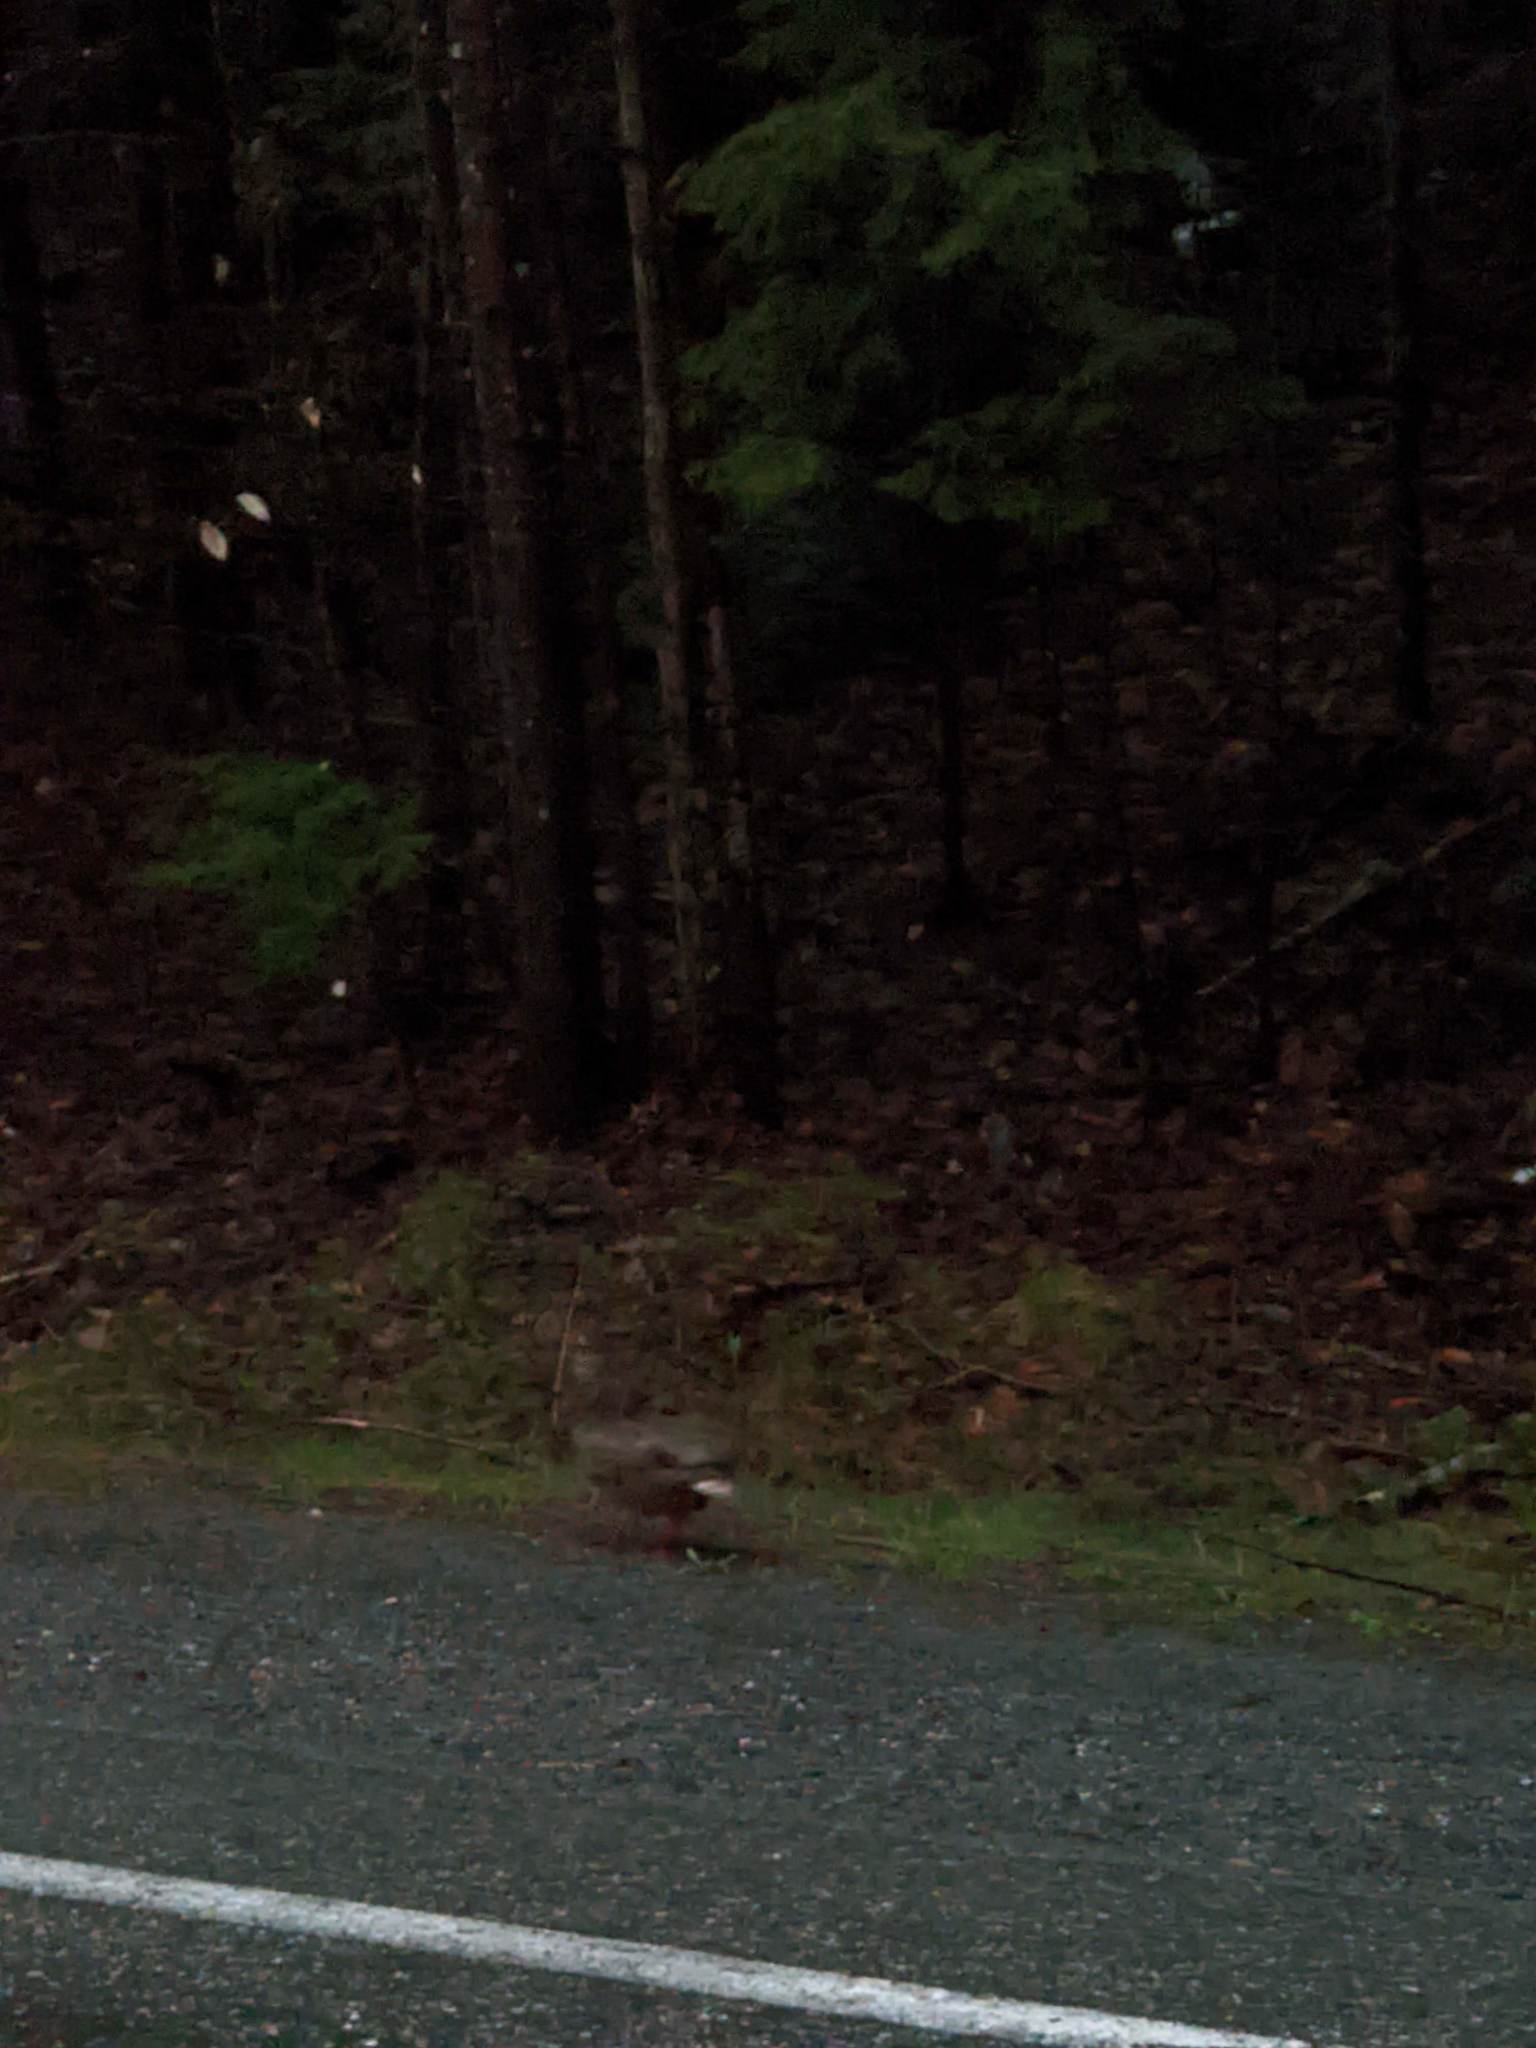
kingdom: Animalia
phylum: Chordata
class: Aves
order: Anseriformes
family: Anatidae
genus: Anas
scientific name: Anas platyrhynchos
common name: Mallard
